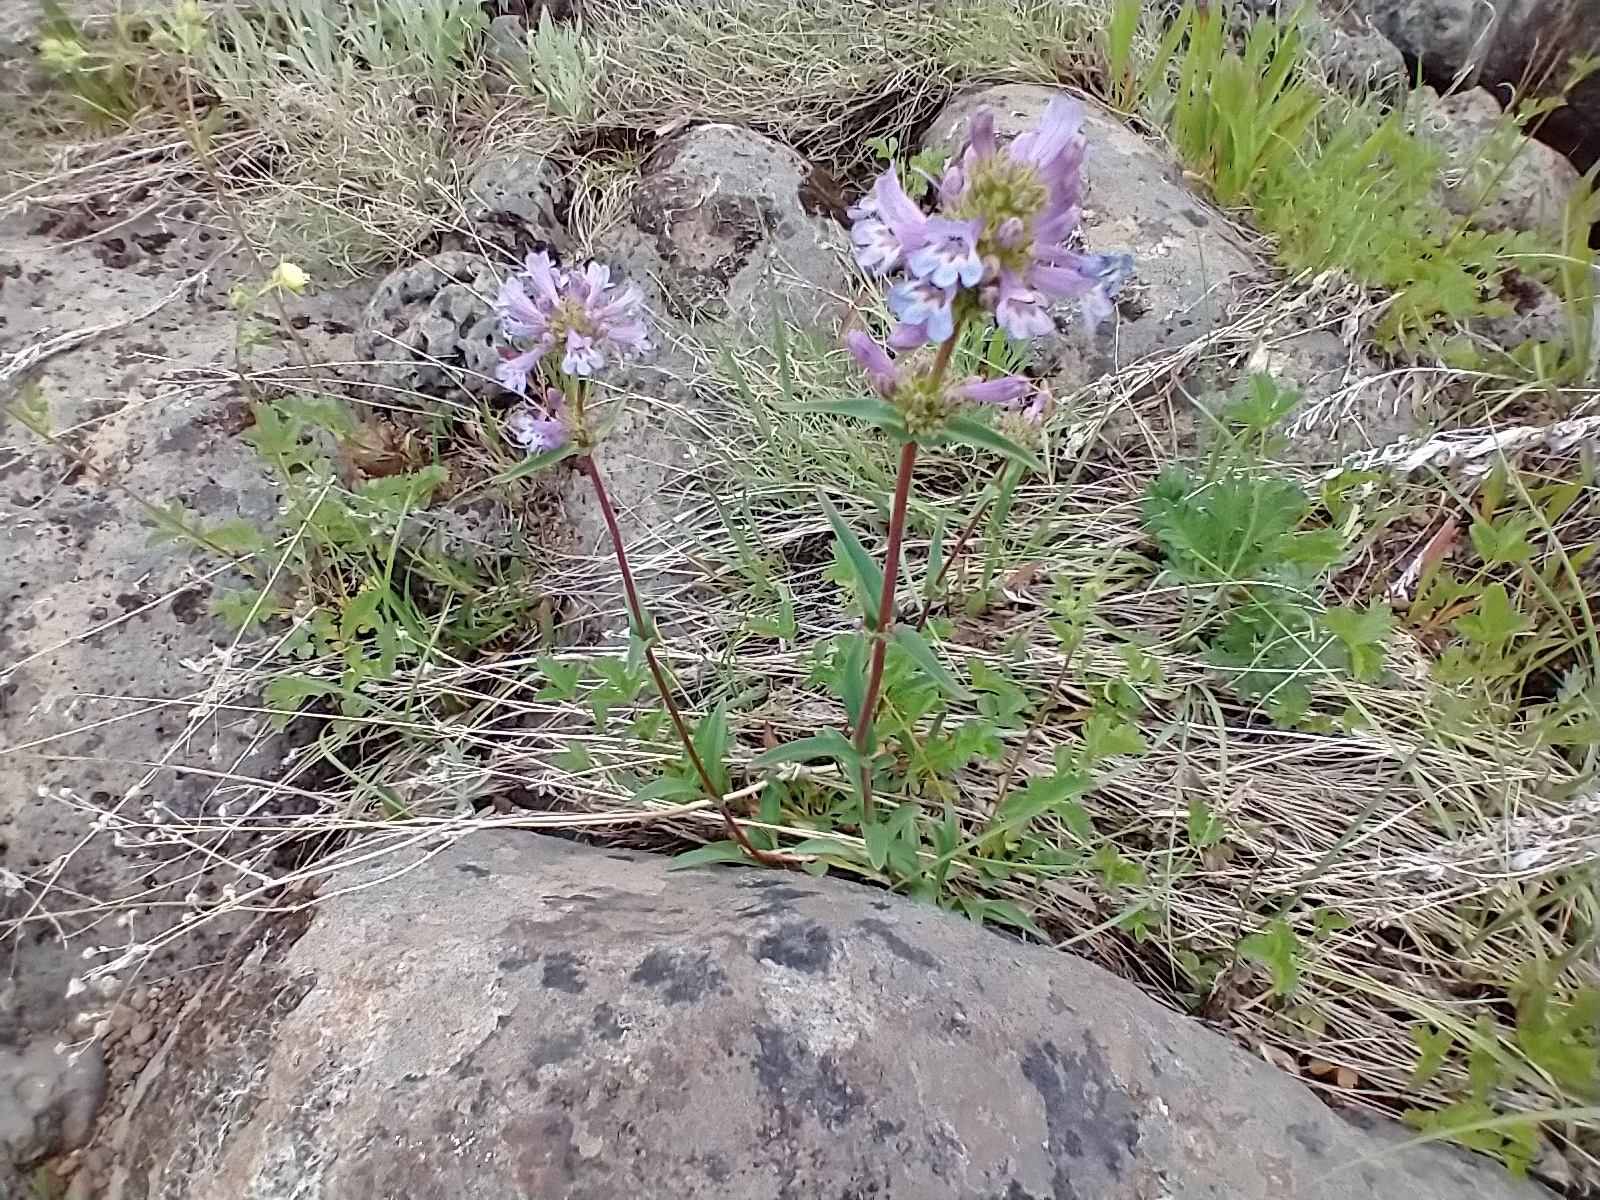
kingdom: Plantae
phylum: Tracheophyta
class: Magnoliopsida
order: Lamiales
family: Plantaginaceae
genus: Penstemon
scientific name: Penstemon pratensis
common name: White-flower penstemon
